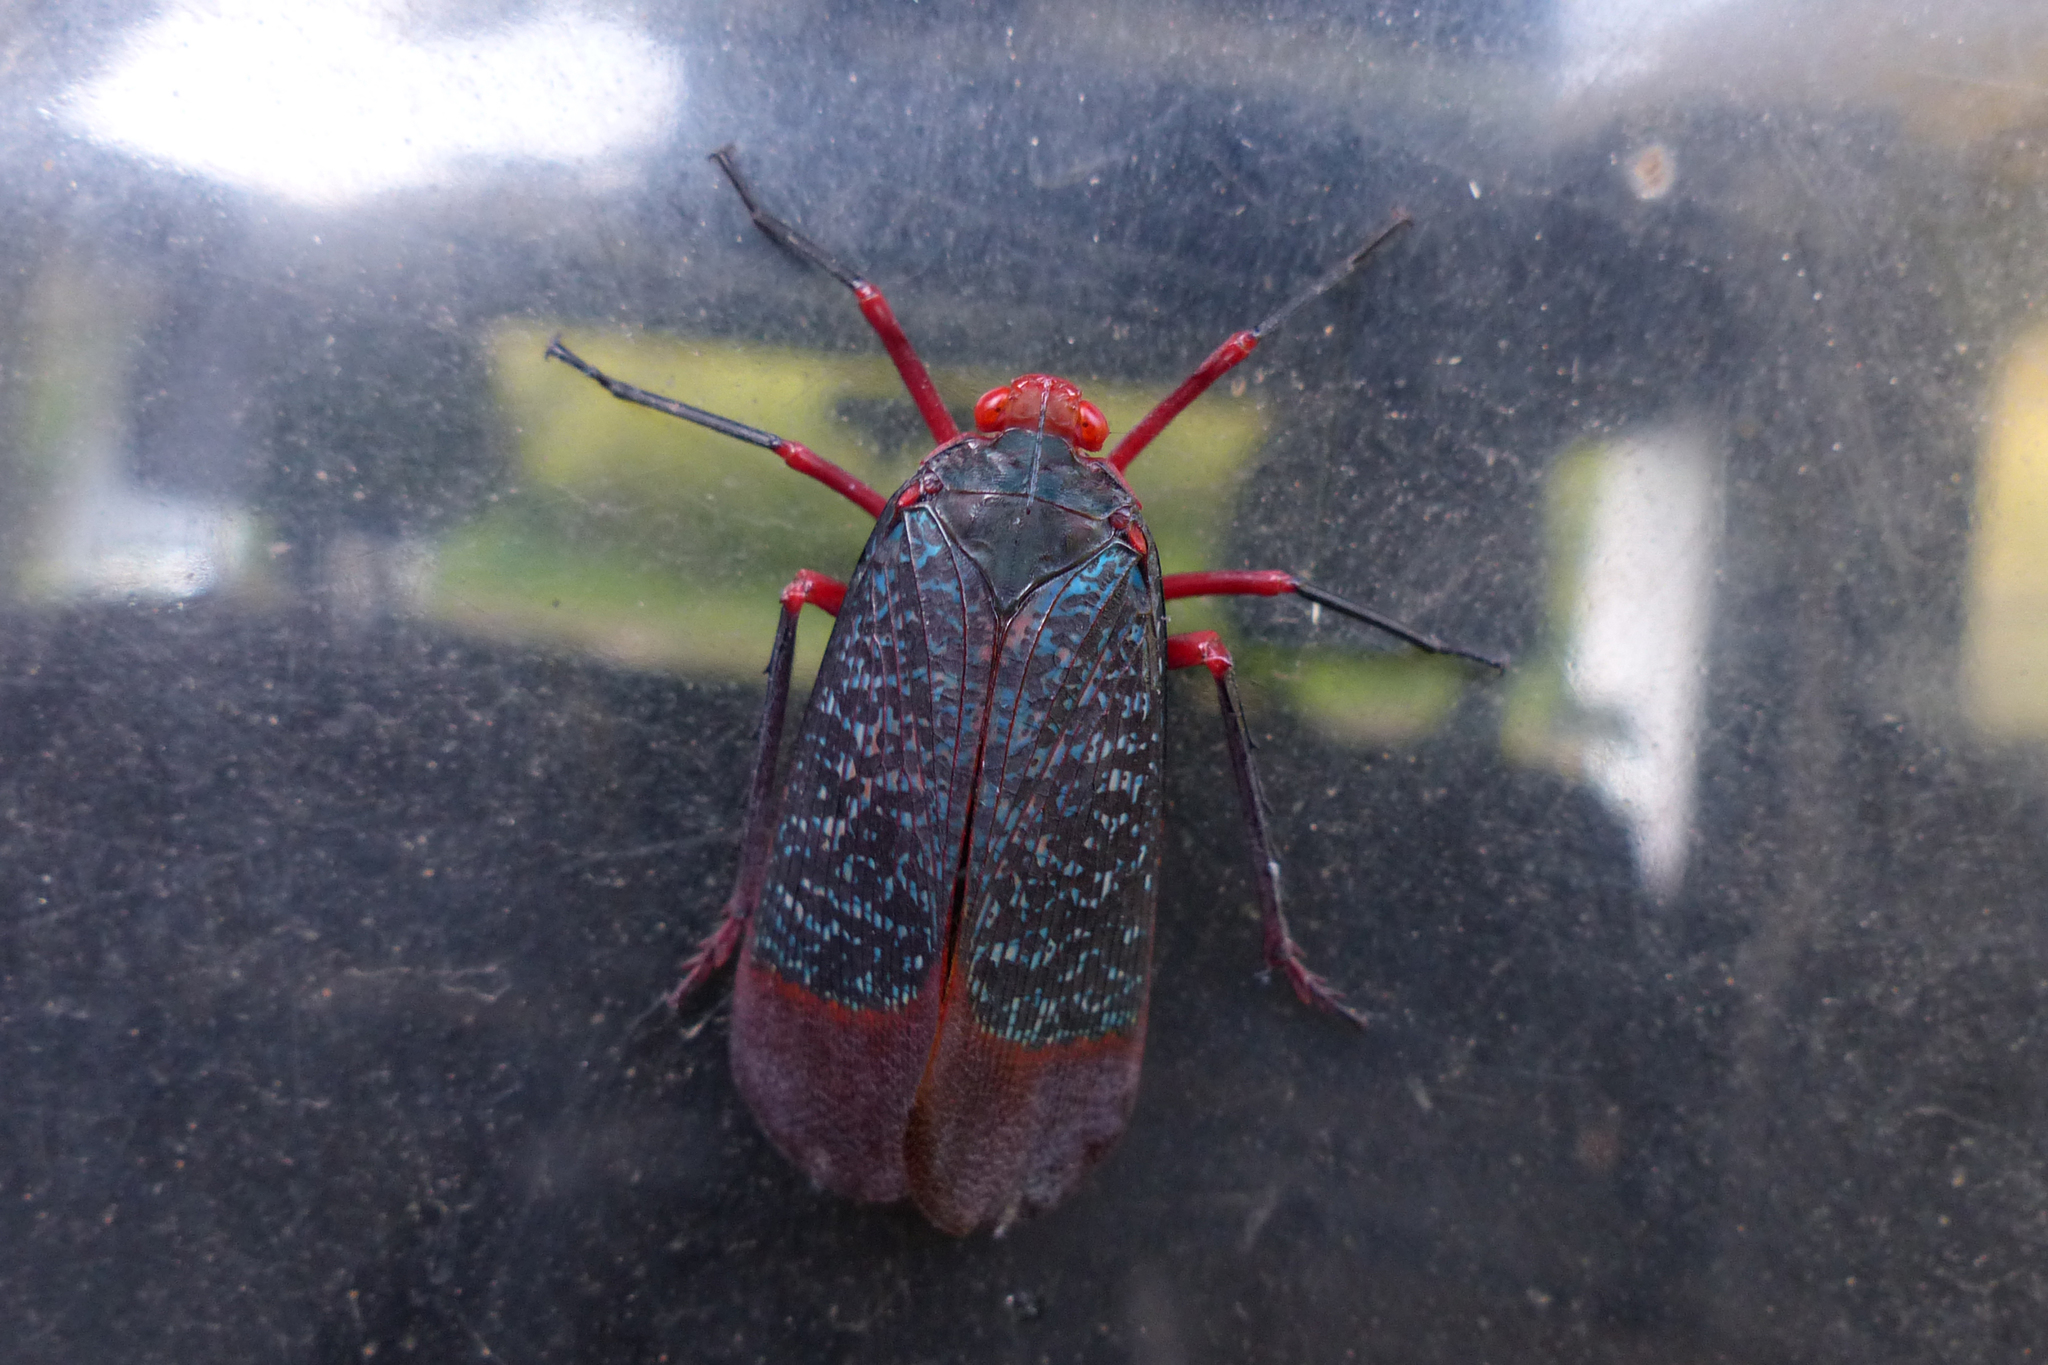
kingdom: Animalia
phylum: Arthropoda
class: Insecta
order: Hemiptera
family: Fulgoridae
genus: Kalidasa
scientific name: Kalidasa lanata
